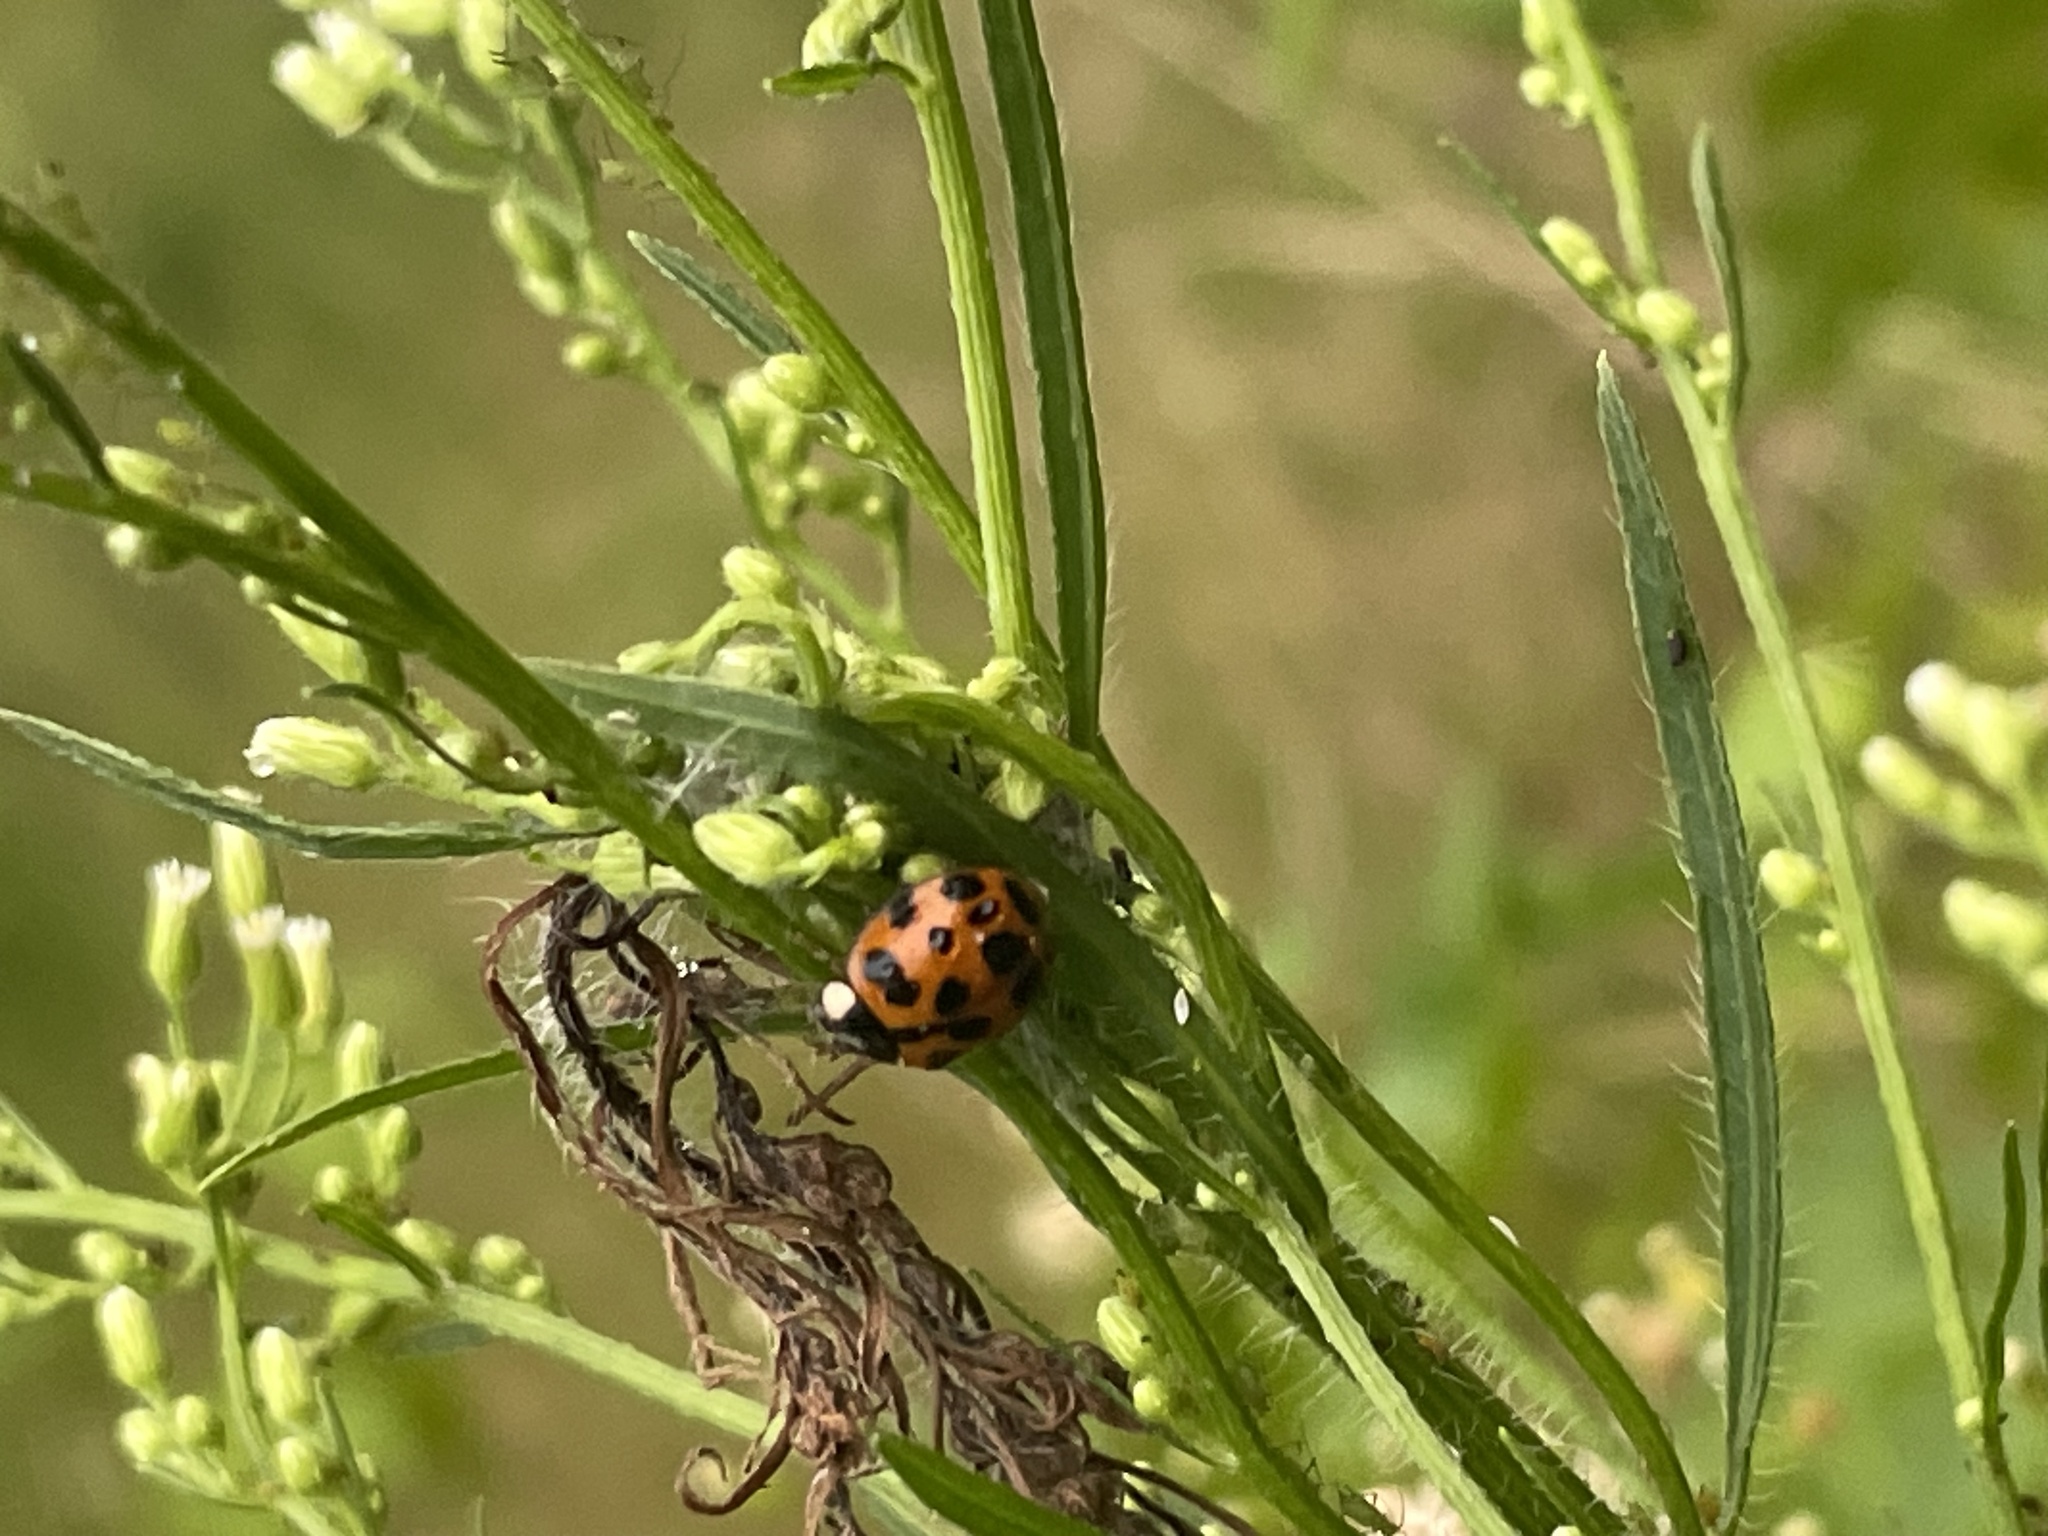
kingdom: Animalia
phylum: Arthropoda
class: Insecta
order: Coleoptera
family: Coccinellidae
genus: Harmonia
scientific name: Harmonia axyridis
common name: Harlequin ladybird
